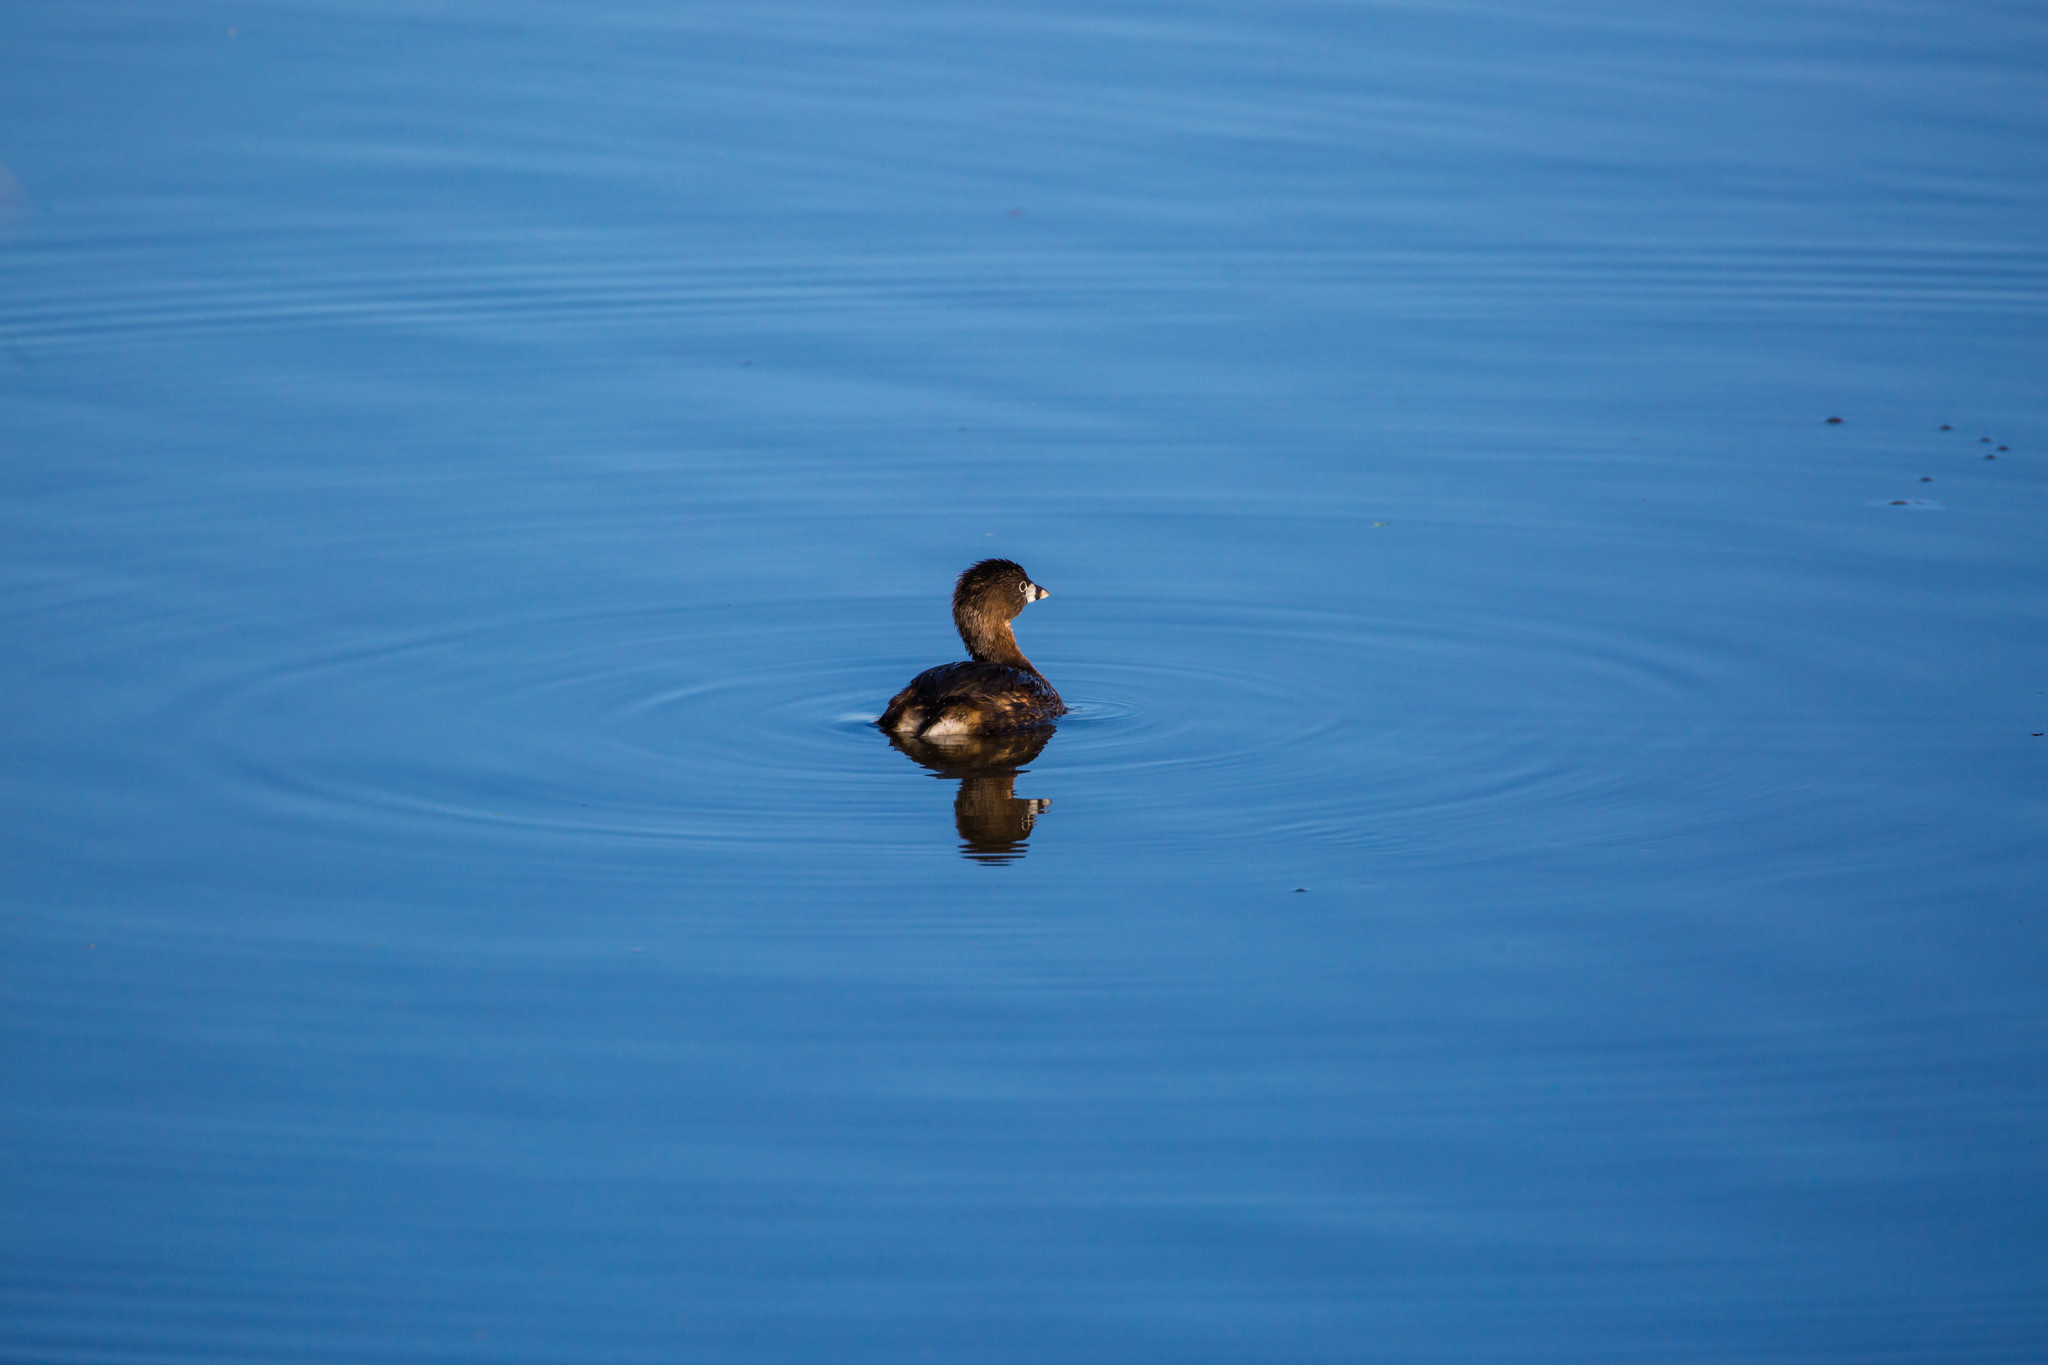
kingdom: Animalia
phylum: Chordata
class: Aves
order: Podicipediformes
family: Podicipedidae
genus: Podilymbus
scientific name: Podilymbus podiceps
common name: Pied-billed grebe
